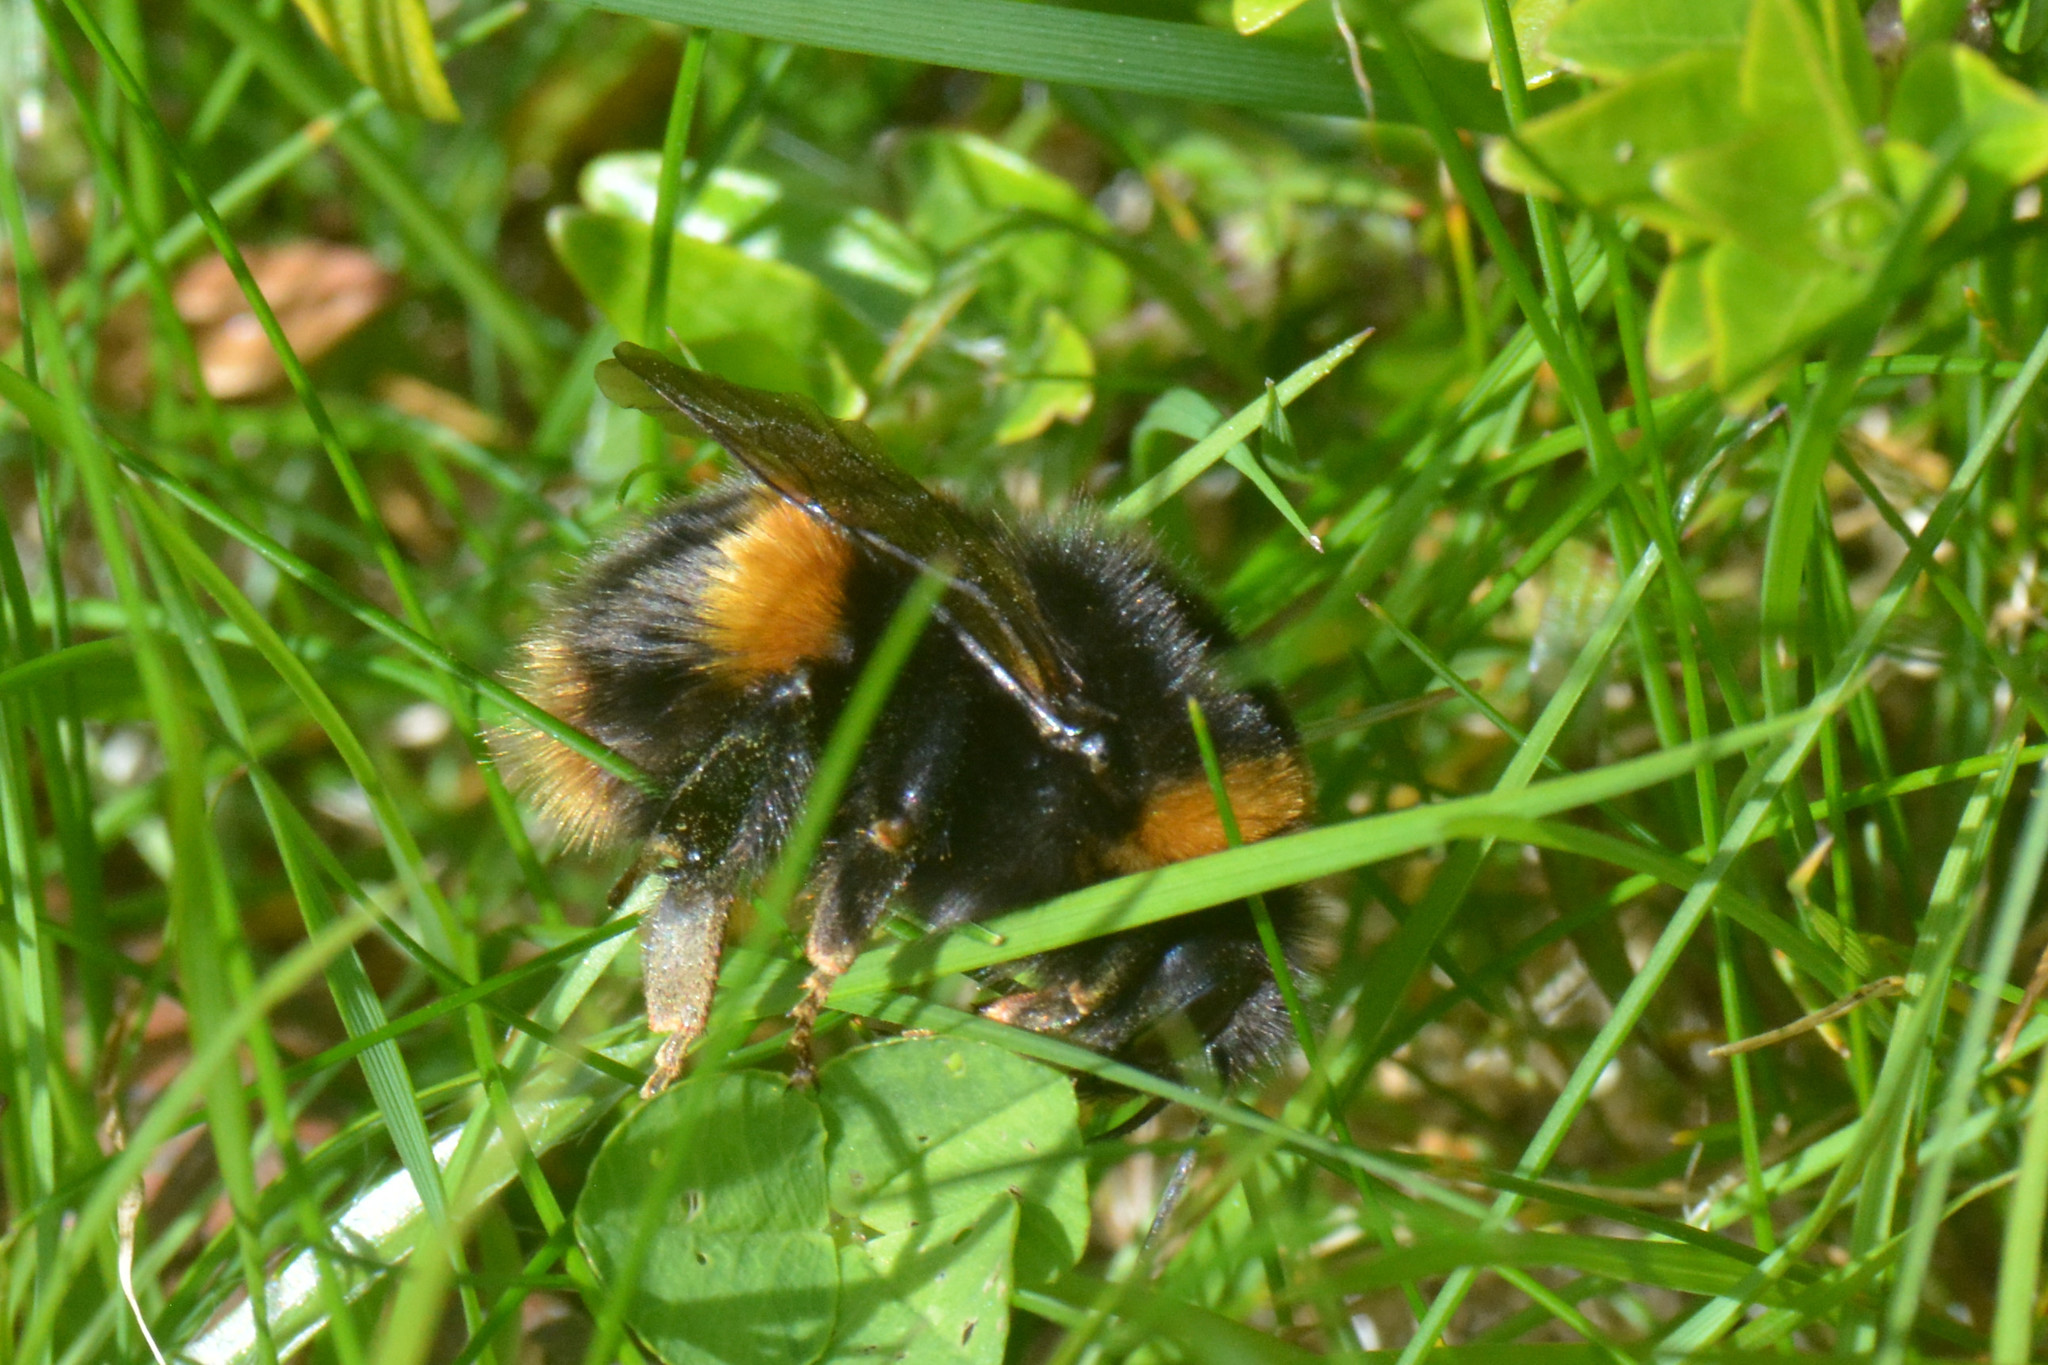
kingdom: Animalia
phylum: Arthropoda
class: Insecta
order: Hymenoptera
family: Apidae
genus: Bombus
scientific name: Bombus terrestris
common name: Buff-tailed bumblebee
